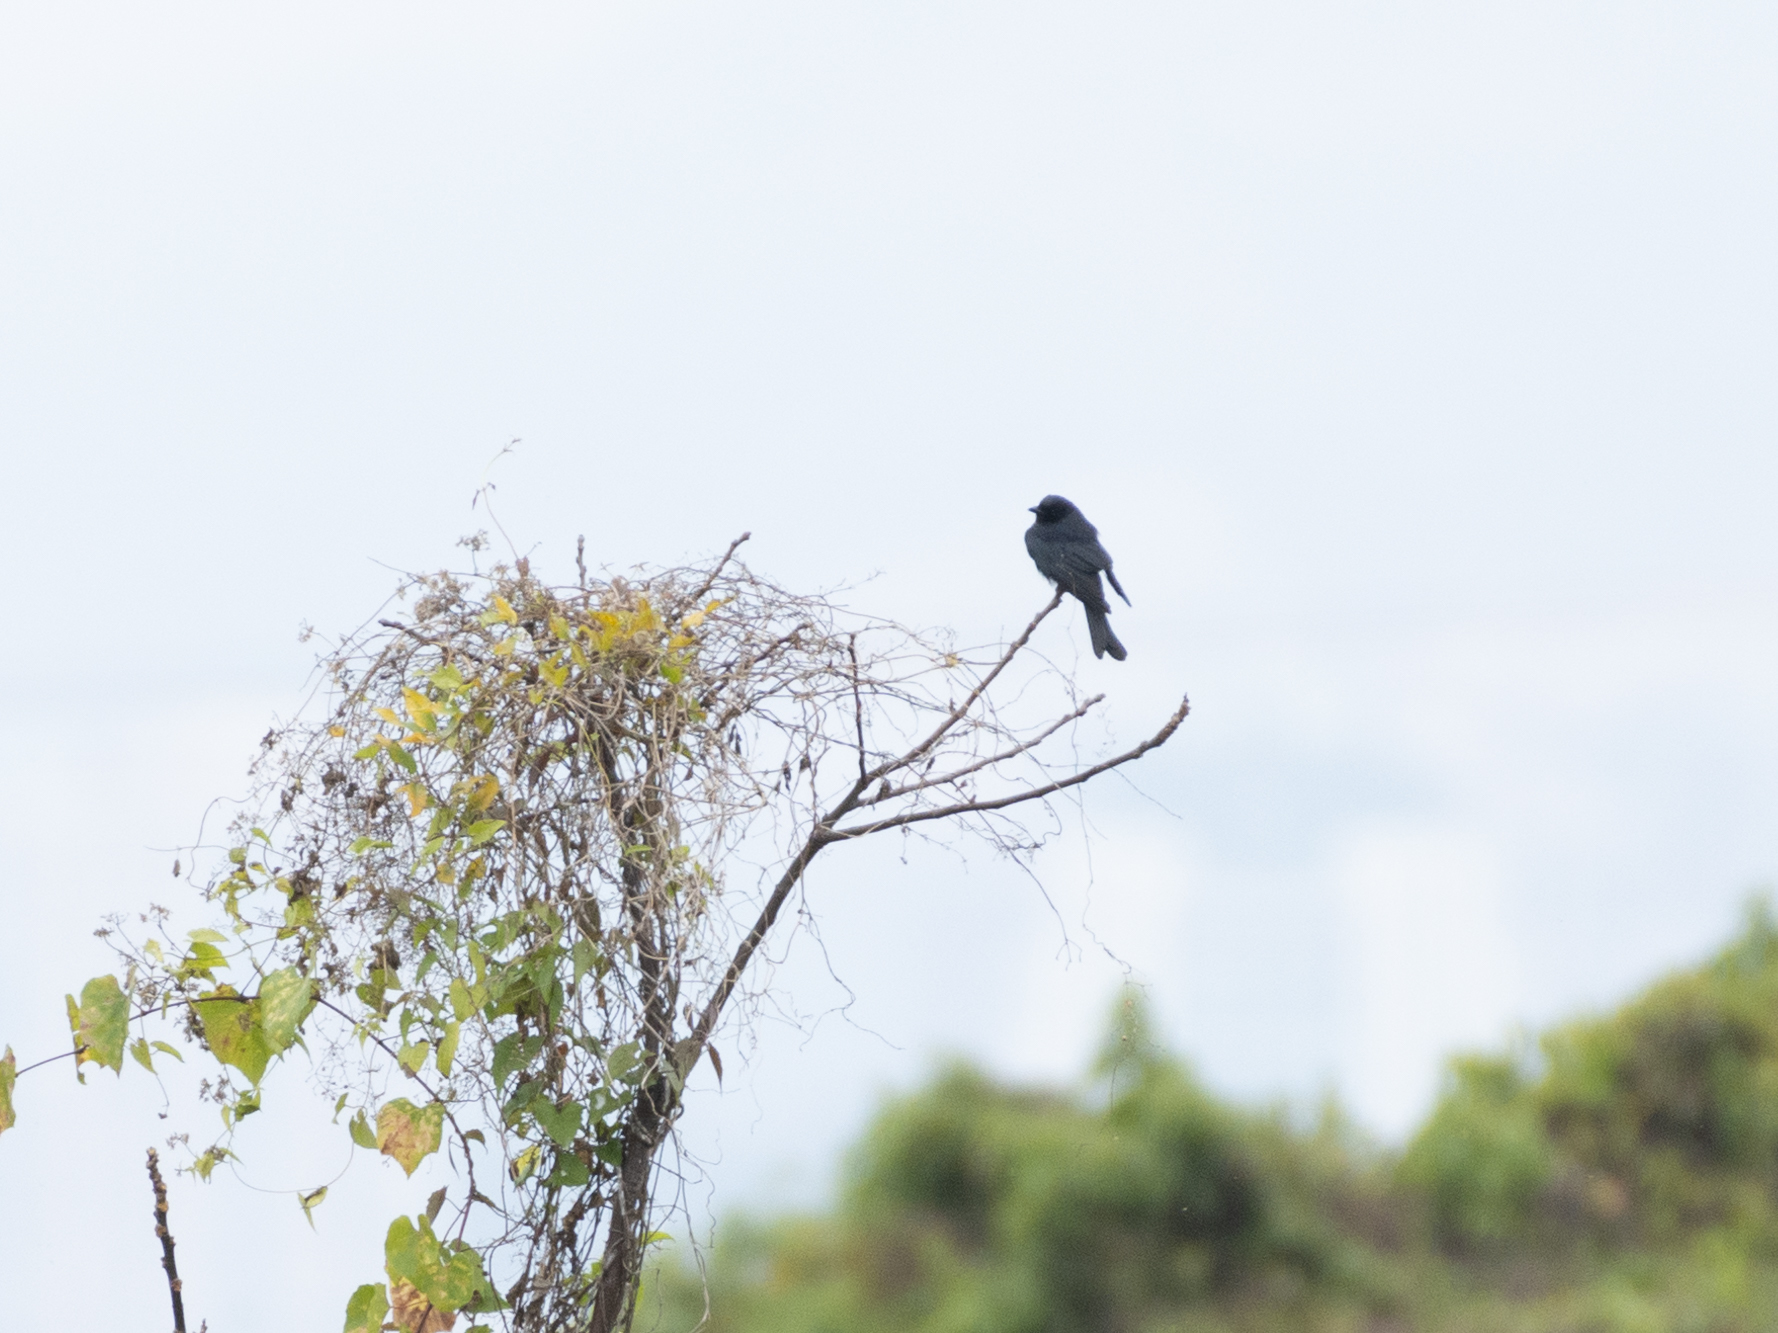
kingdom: Animalia
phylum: Chordata
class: Aves
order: Passeriformes
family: Dicruridae
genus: Dicrurus
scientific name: Dicrurus macrocercus
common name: Black drongo
